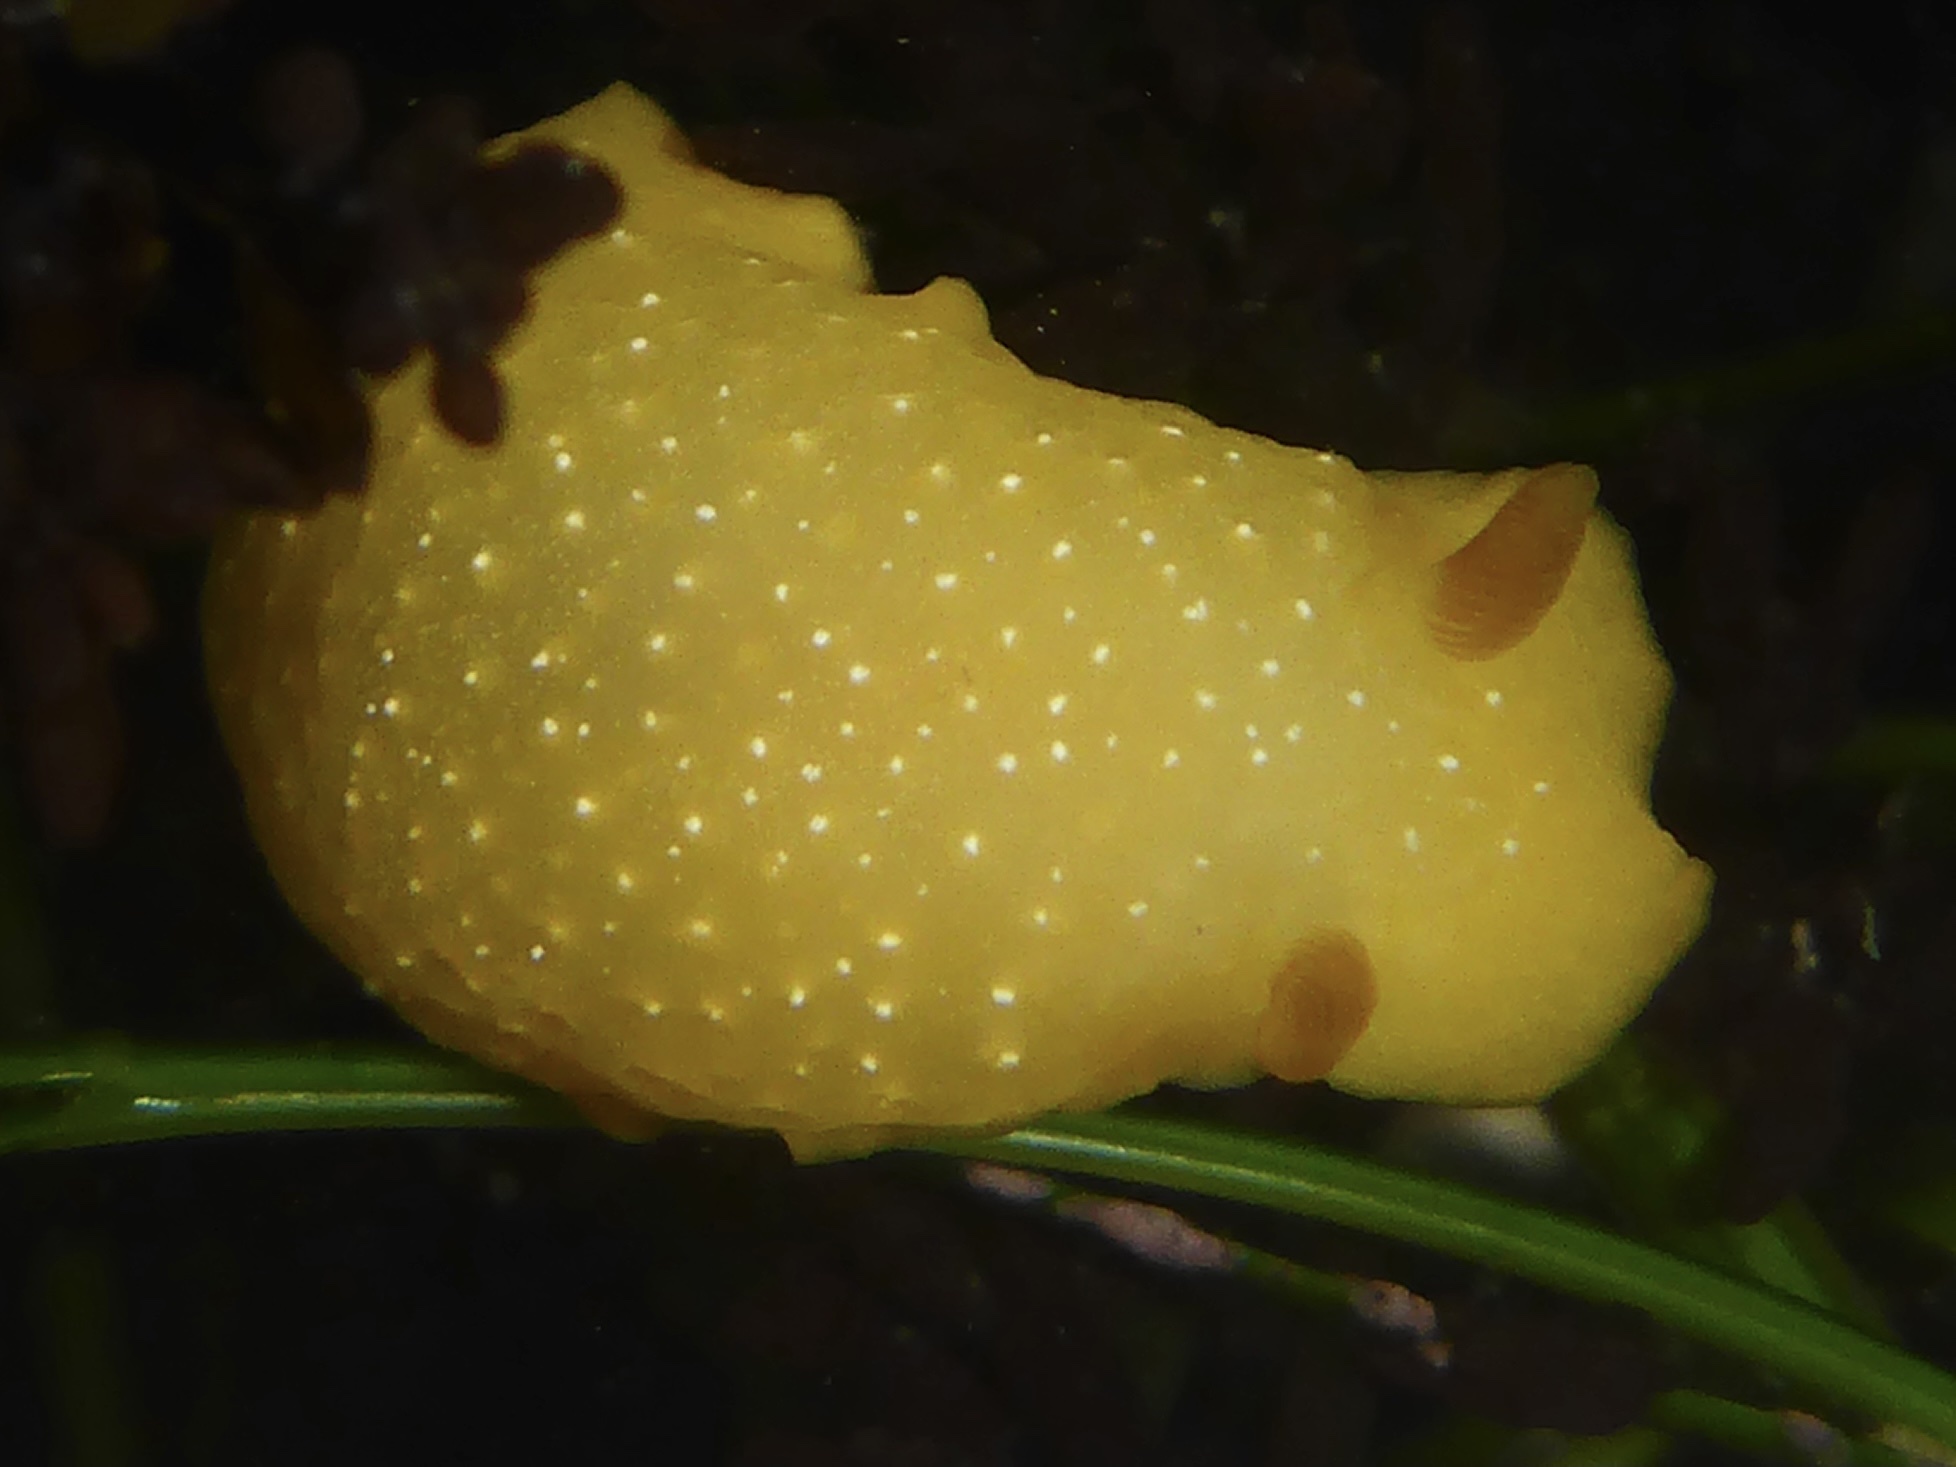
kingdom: Animalia
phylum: Mollusca
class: Gastropoda
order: Nudibranchia
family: Dendrodorididae
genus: Doriopsilla
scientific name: Doriopsilla fulva
